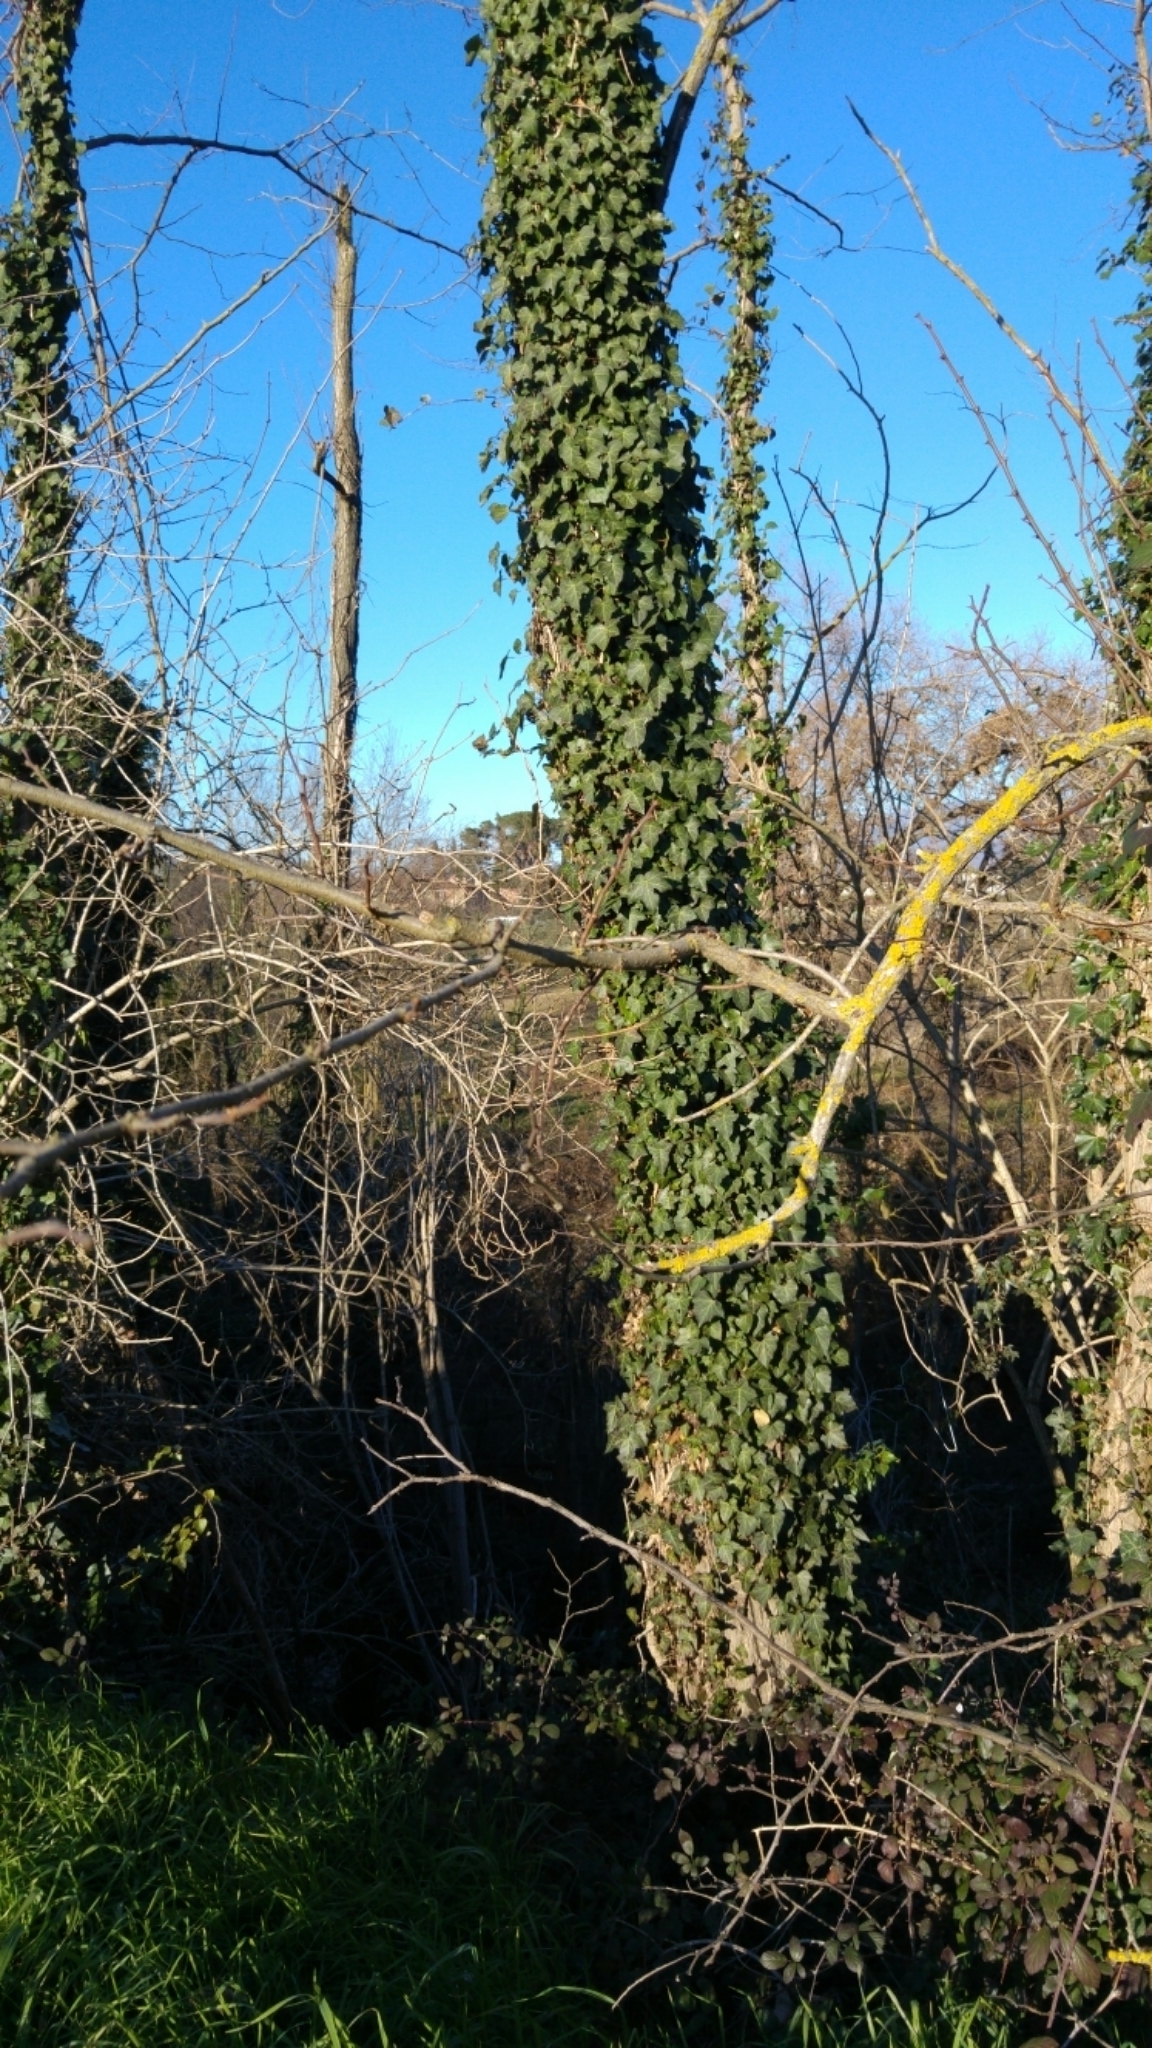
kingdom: Plantae
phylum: Tracheophyta
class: Magnoliopsida
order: Apiales
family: Araliaceae
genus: Hedera
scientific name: Hedera helix
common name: Ivy
